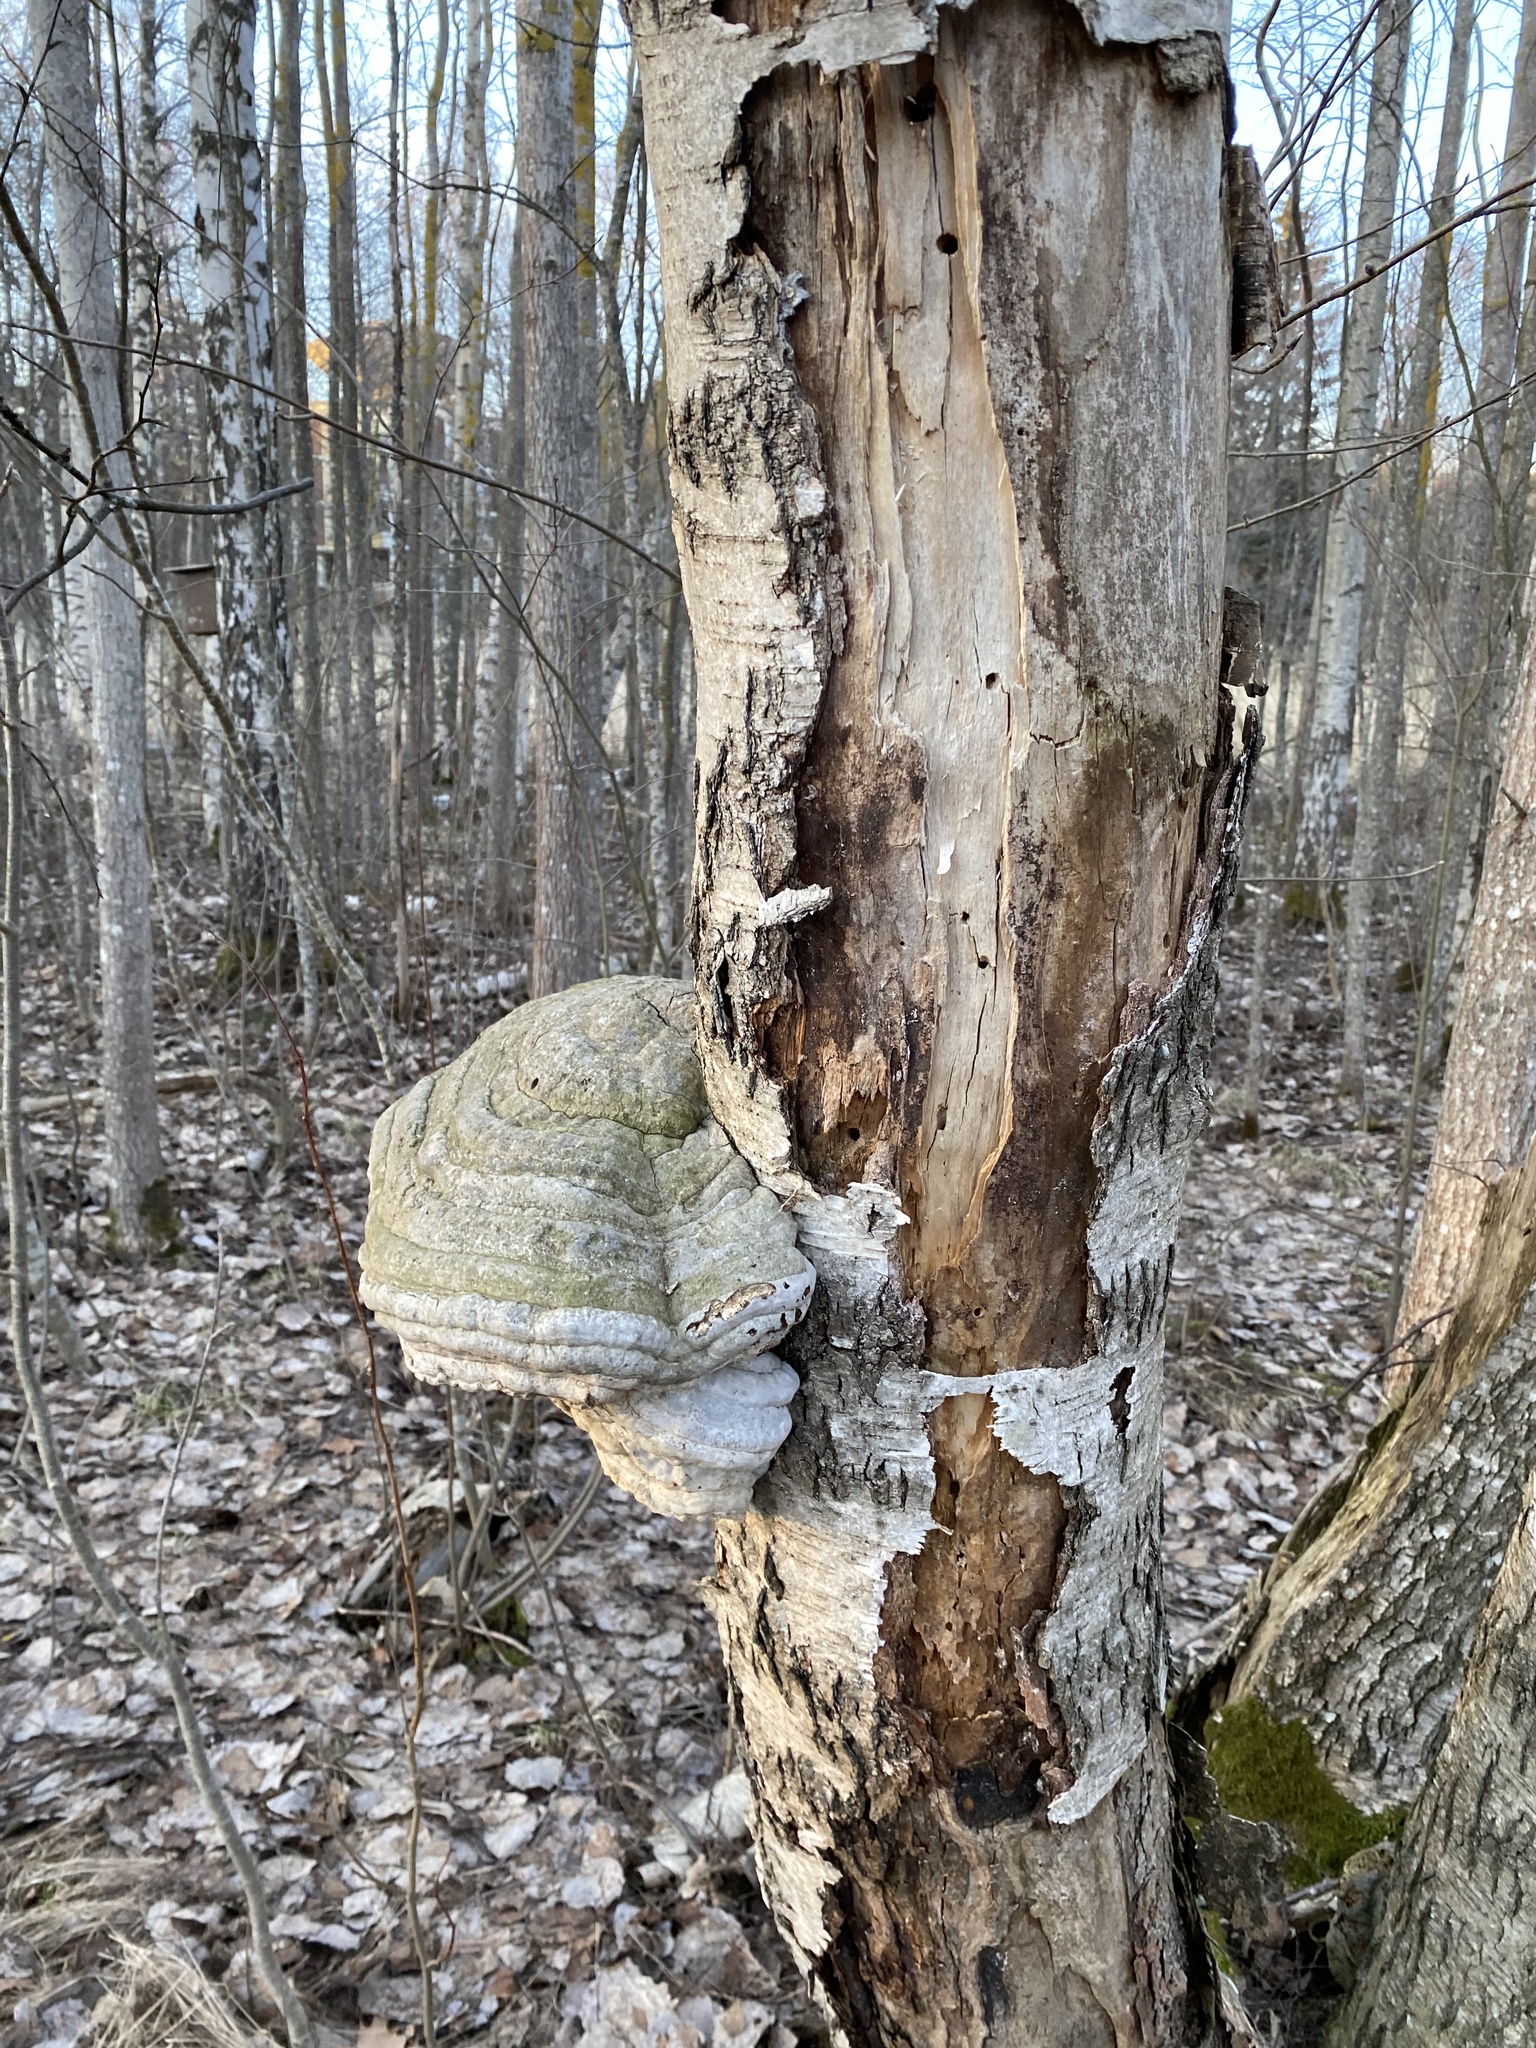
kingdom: Fungi
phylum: Basidiomycota
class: Agaricomycetes
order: Polyporales
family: Polyporaceae
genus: Fomes
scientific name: Fomes fomentarius
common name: Hoof fungus
